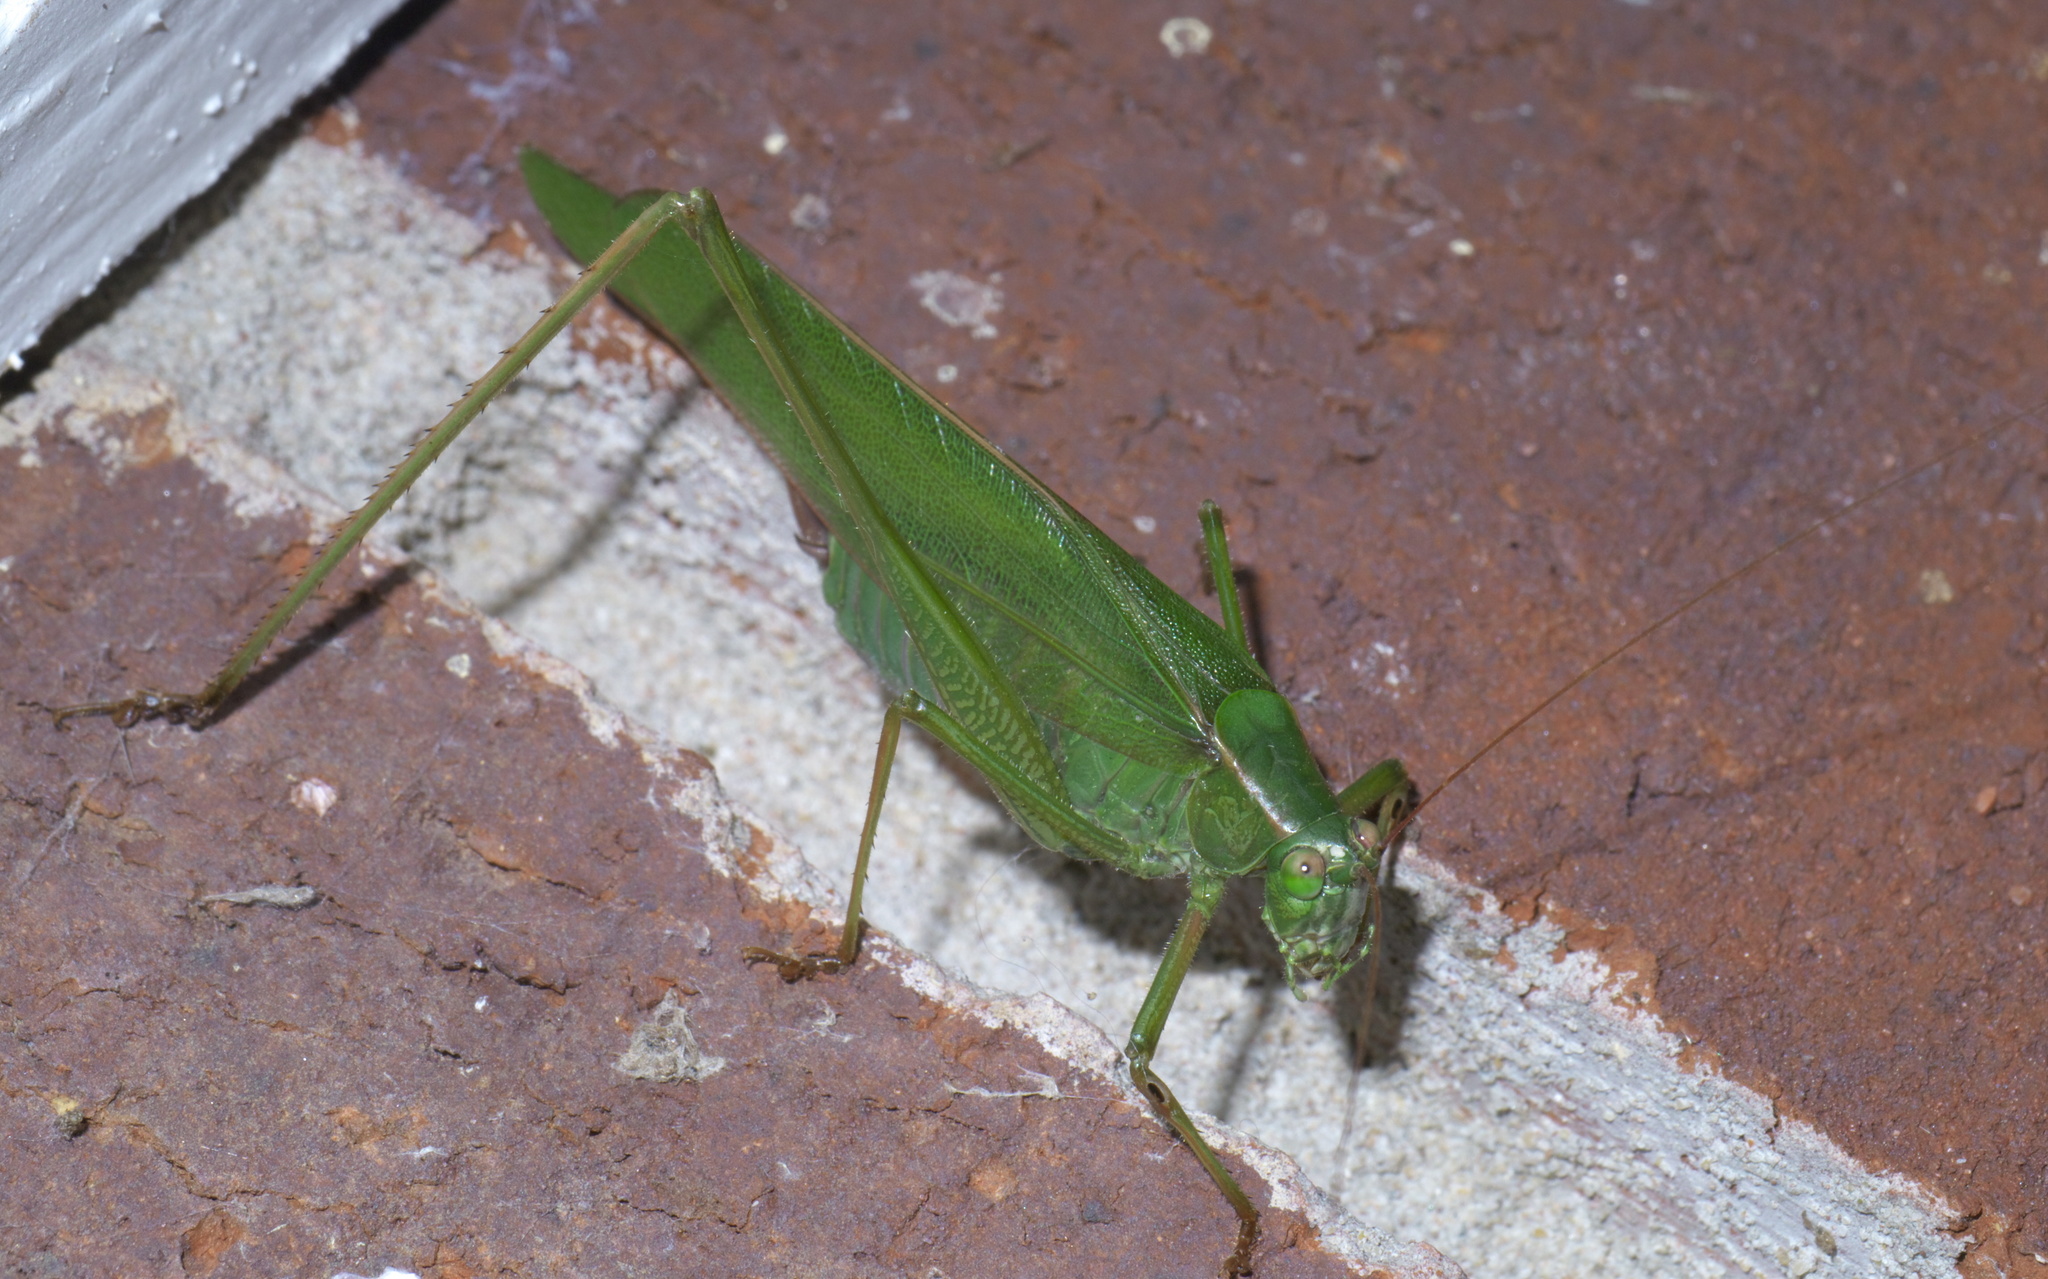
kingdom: Animalia
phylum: Arthropoda
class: Insecta
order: Orthoptera
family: Tettigoniidae
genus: Scudderia
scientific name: Scudderia furcata
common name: Fork-tailed bush katydid
